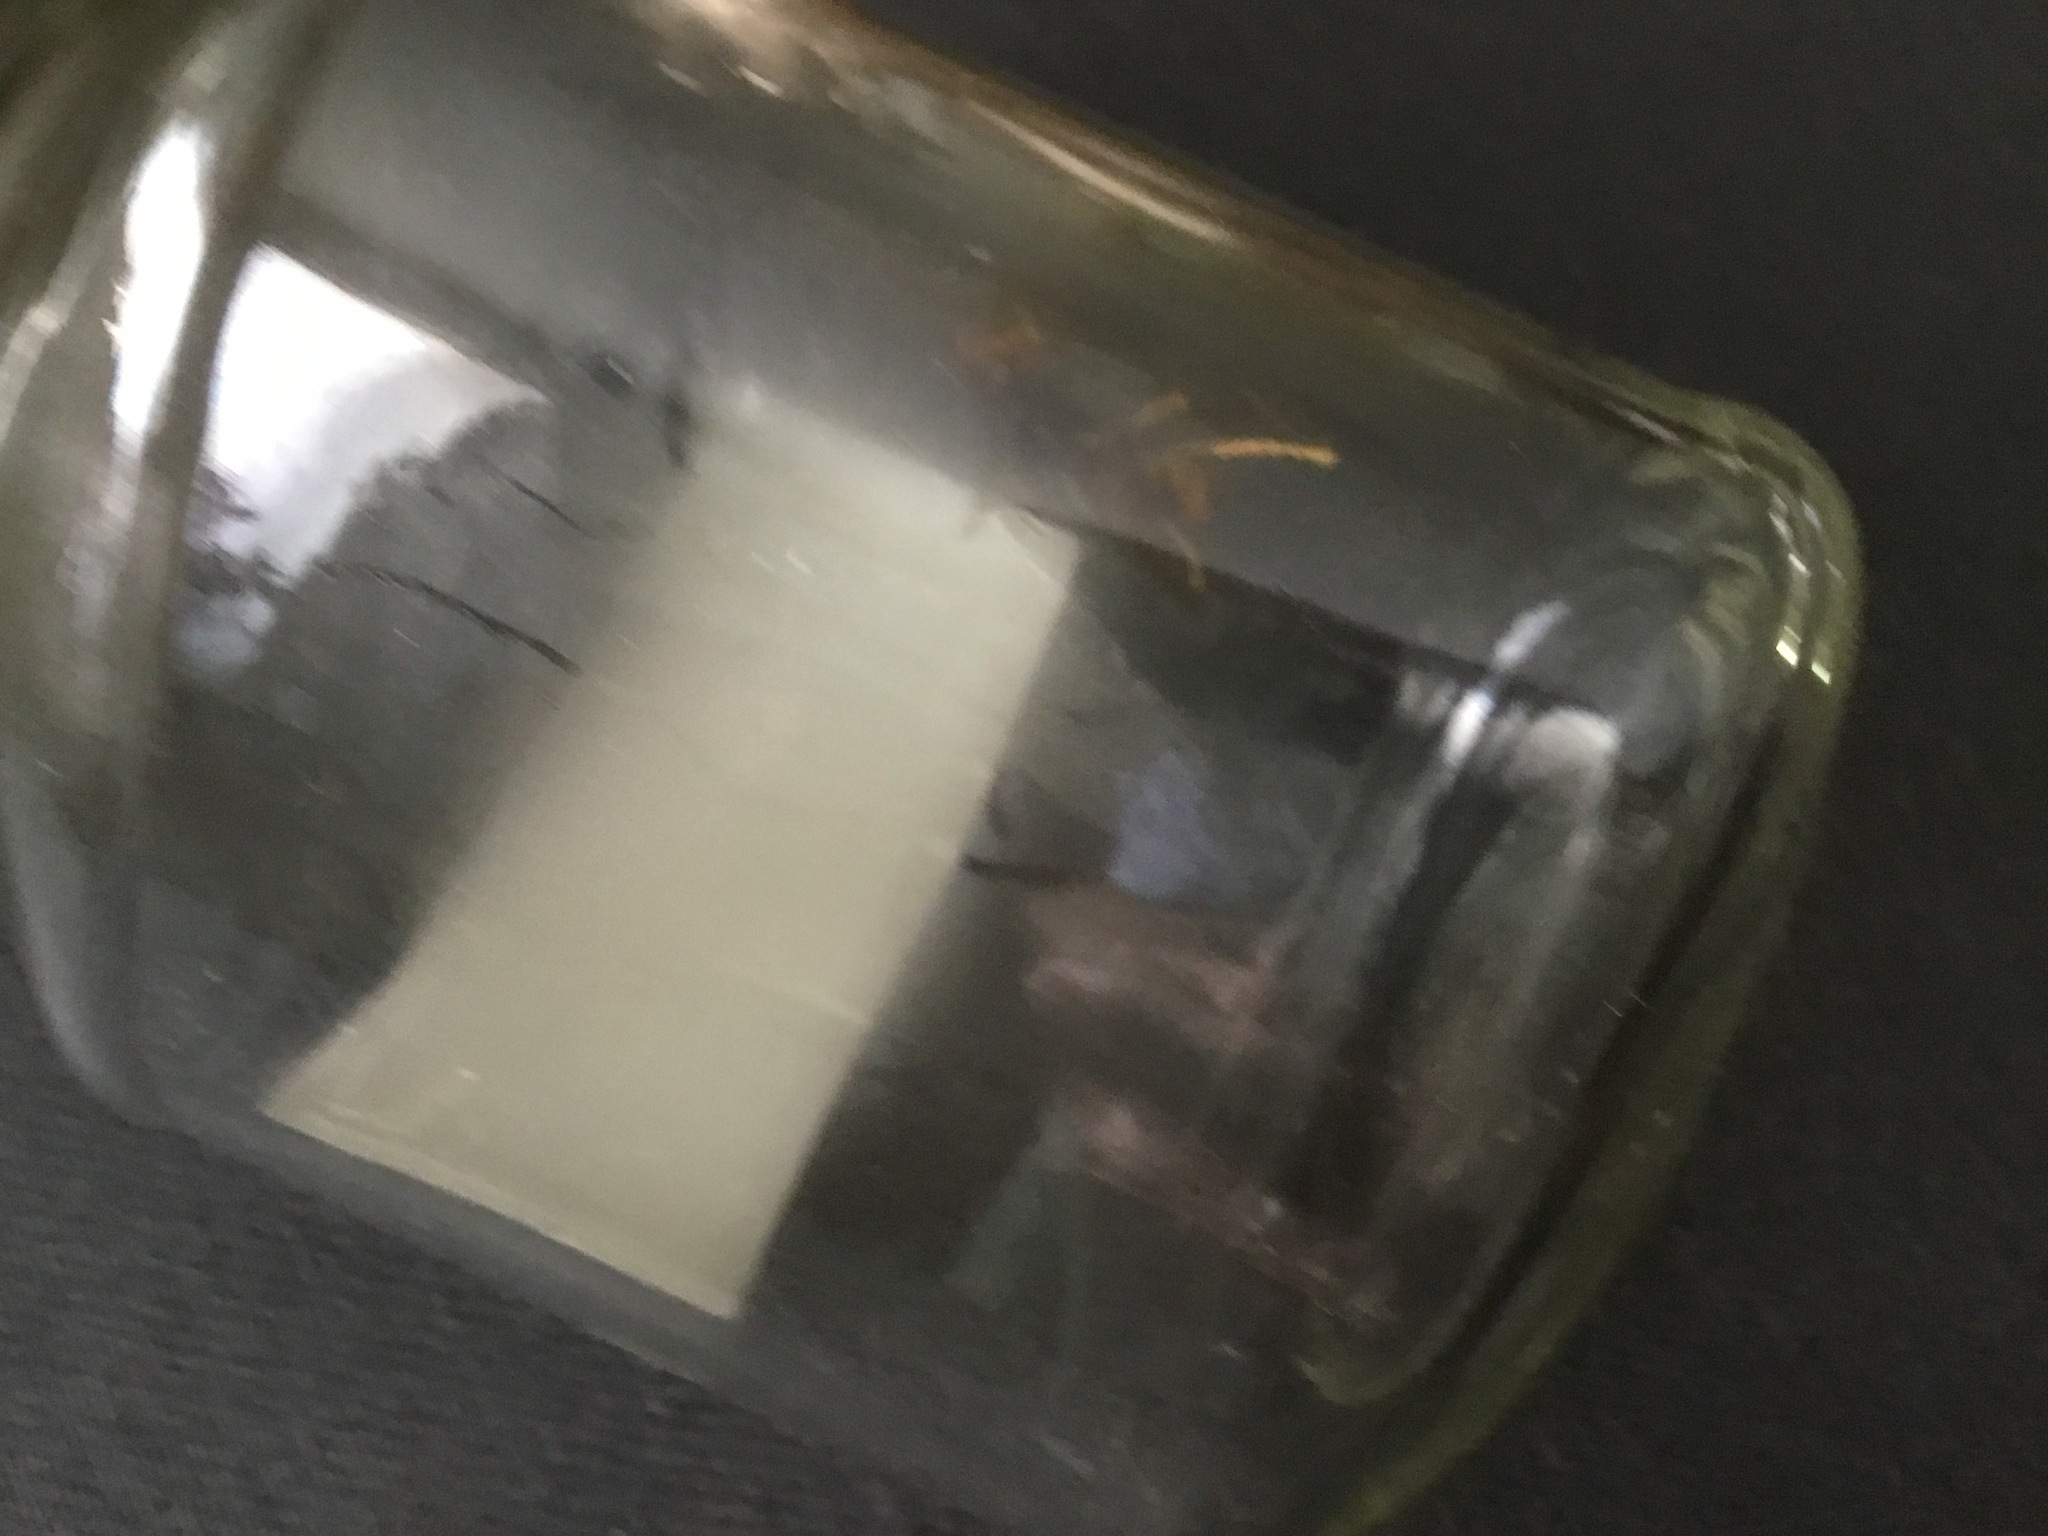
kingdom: Animalia
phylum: Arthropoda
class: Insecta
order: Hymenoptera
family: Vespidae
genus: Vespa
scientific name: Vespa velutina
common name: Asian hornet
